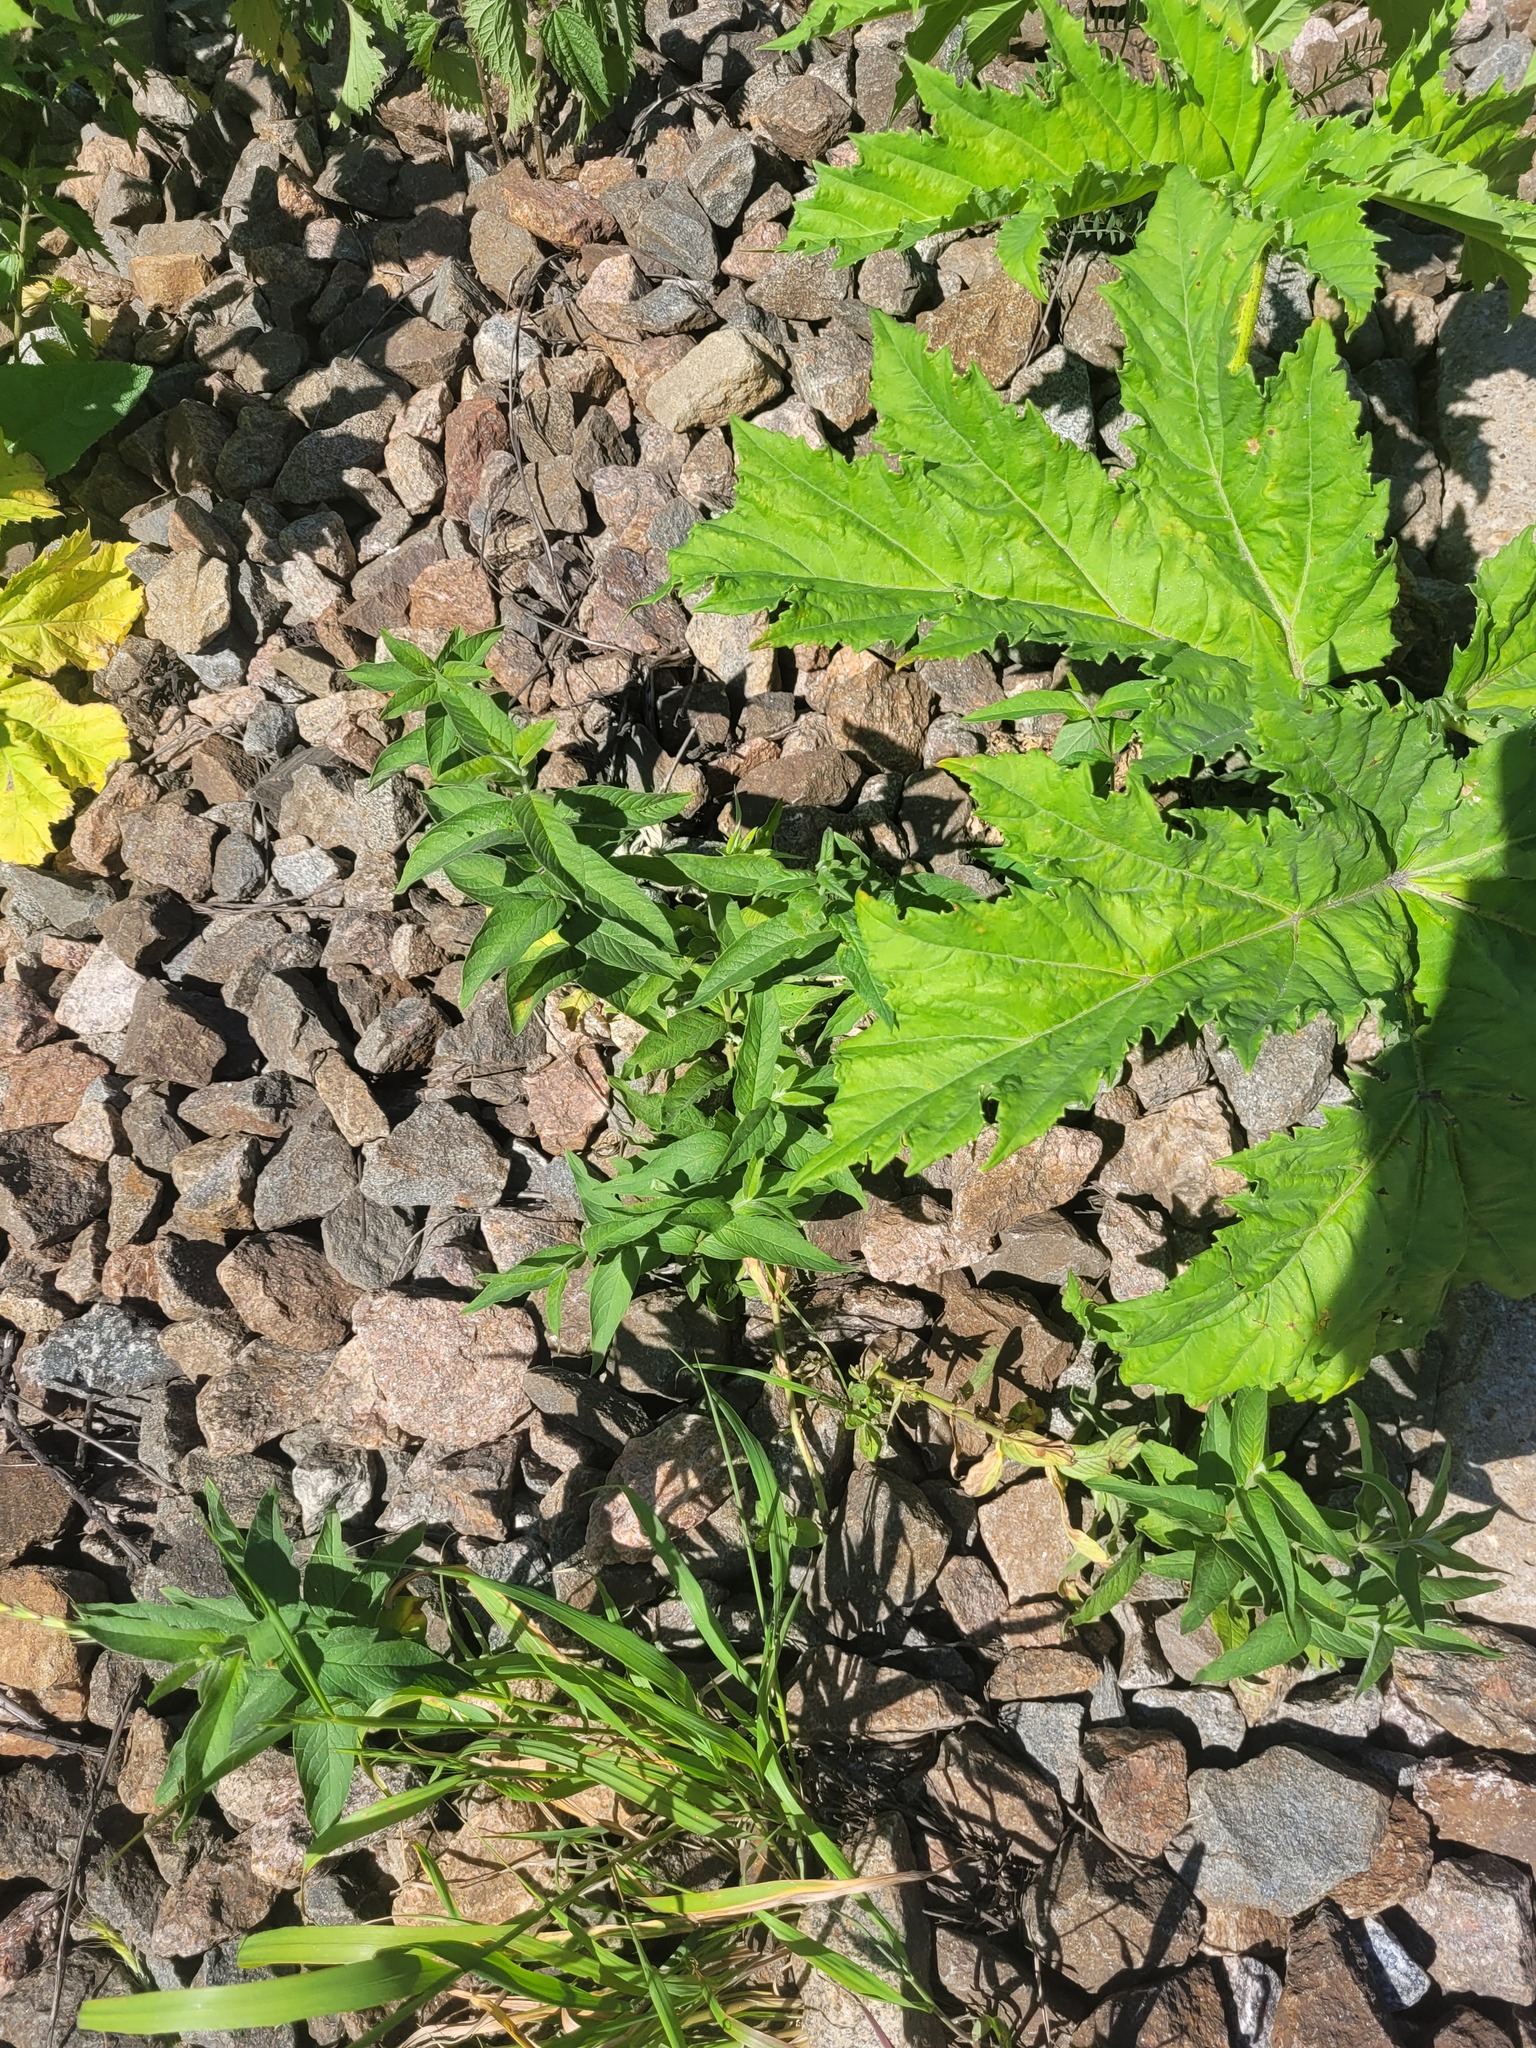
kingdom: Plantae
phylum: Tracheophyta
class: Magnoliopsida
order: Ericales
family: Primulaceae
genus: Lysimachia
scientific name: Lysimachia vulgaris
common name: Yellow loosestrife
